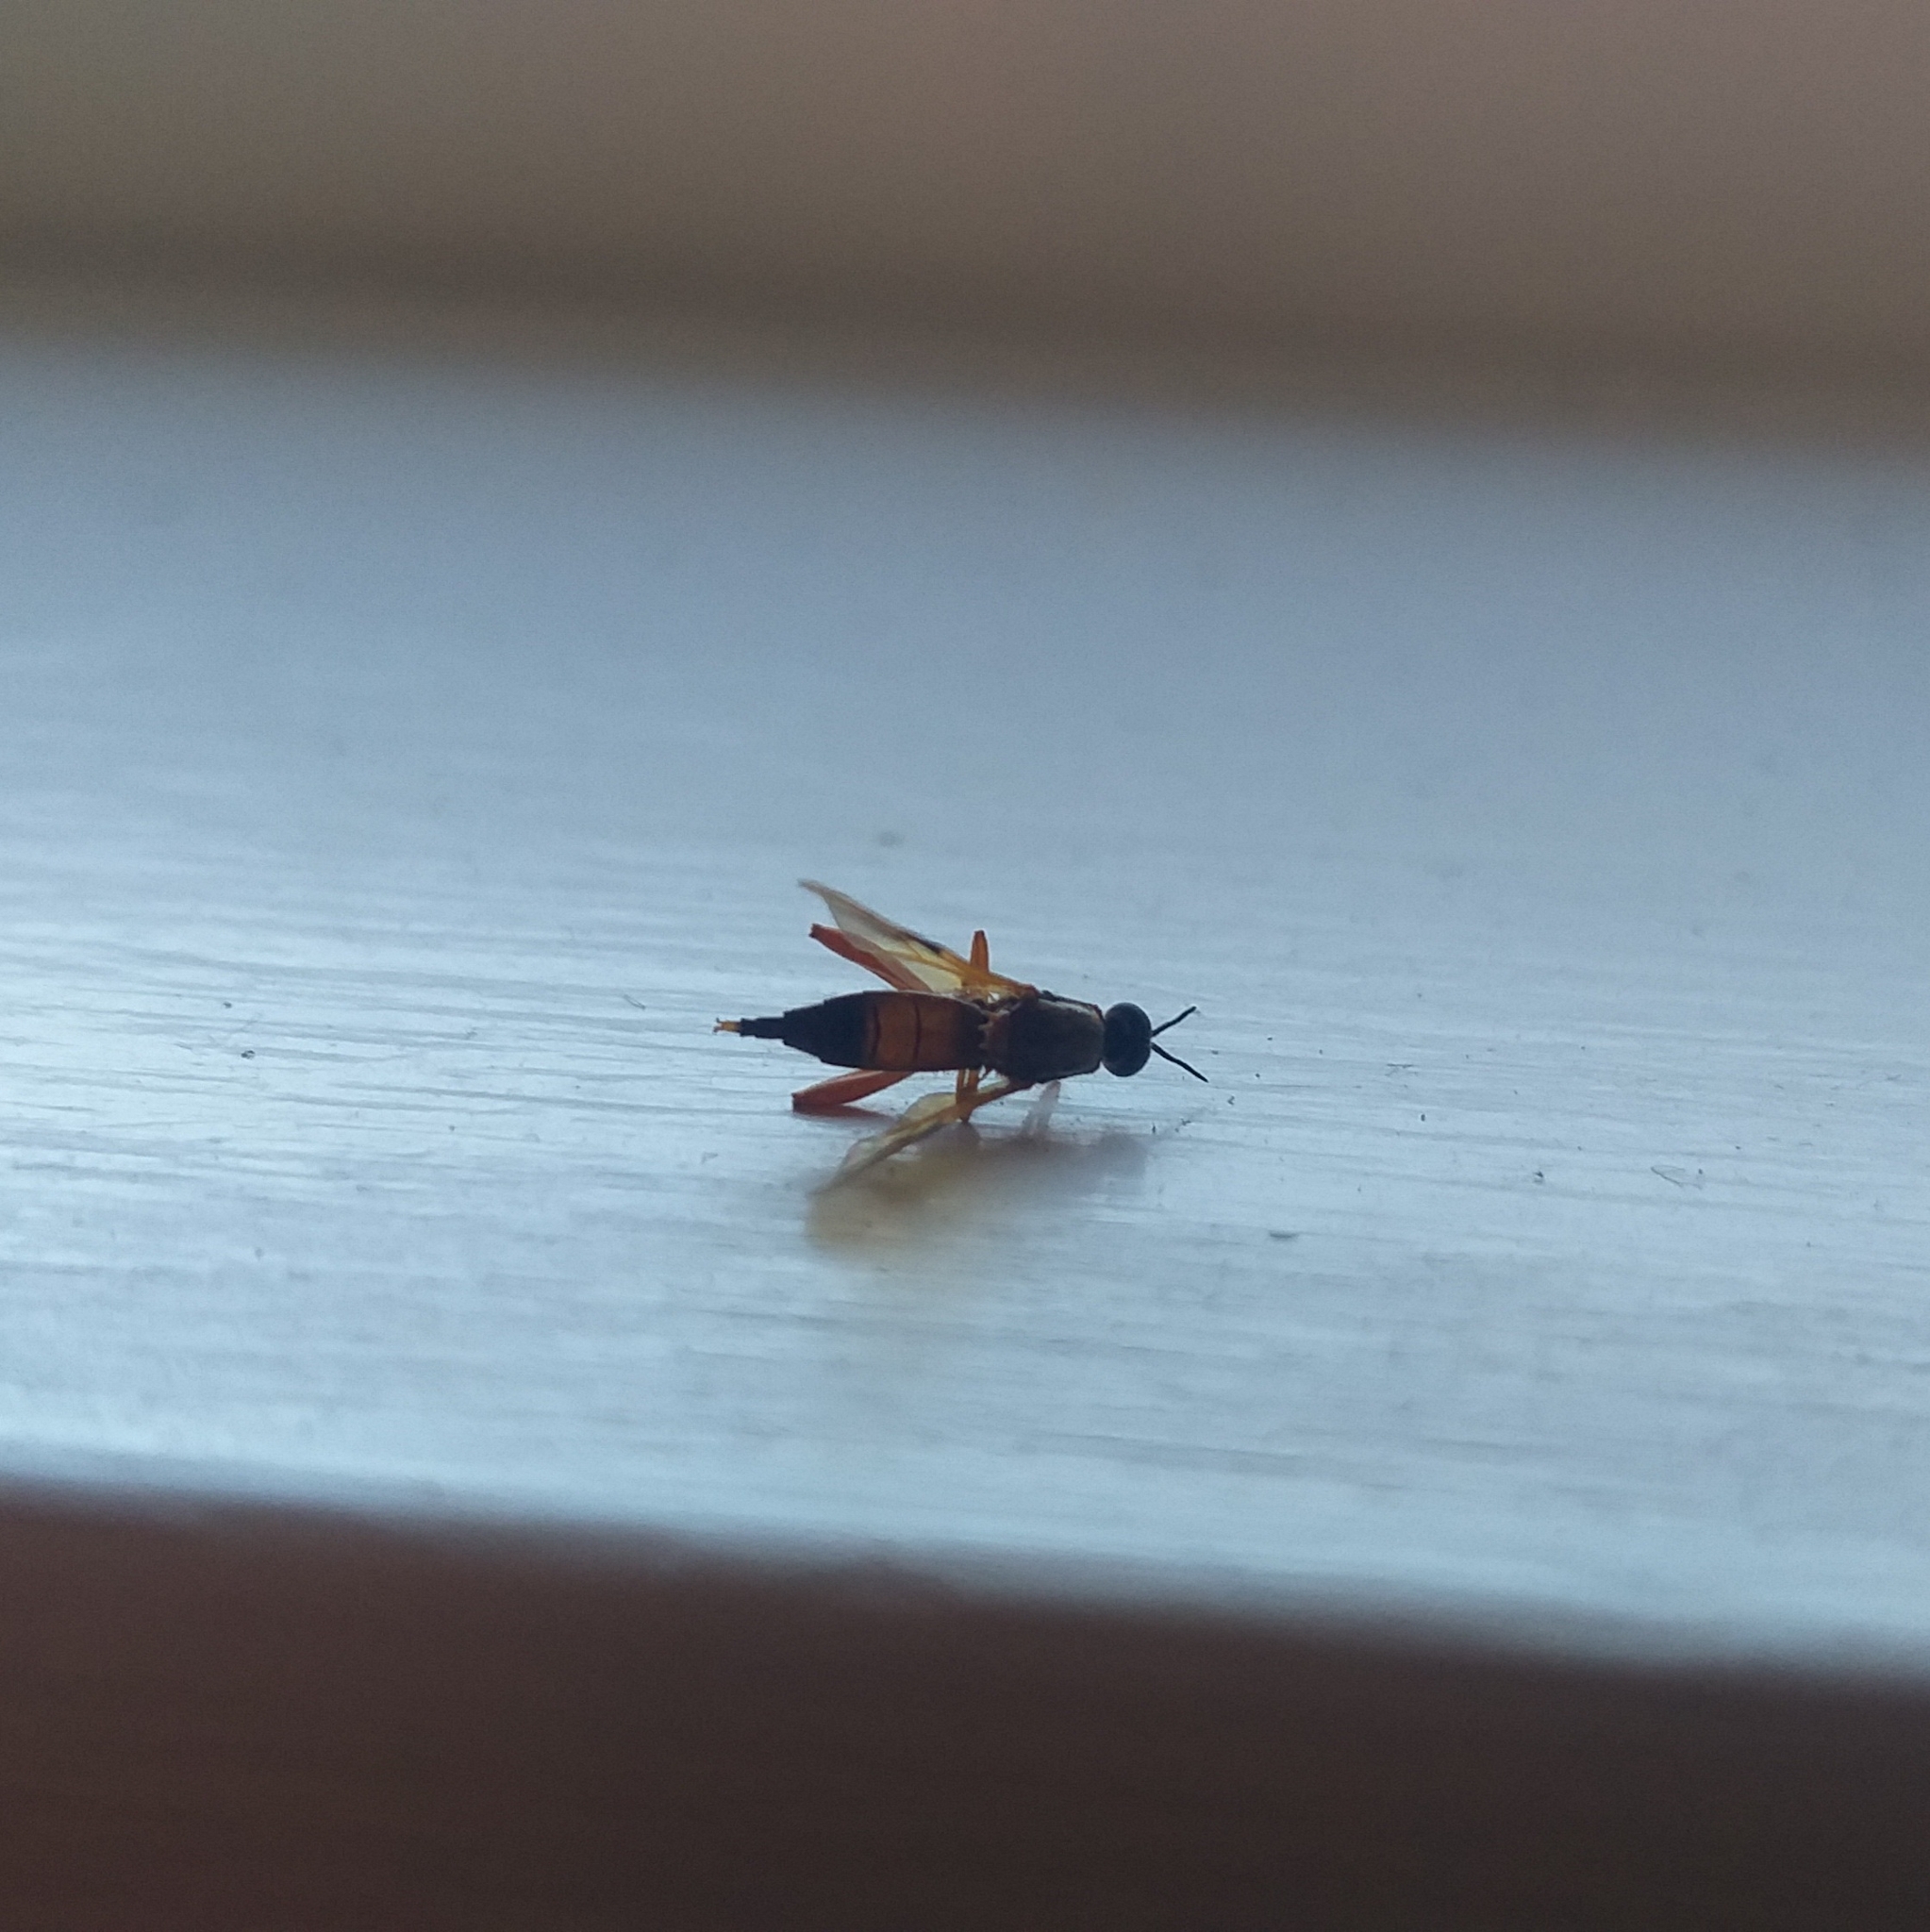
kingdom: Animalia
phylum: Arthropoda
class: Insecta
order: Diptera
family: Stratiomyidae
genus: Benhamyia
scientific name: Benhamyia apicalis
